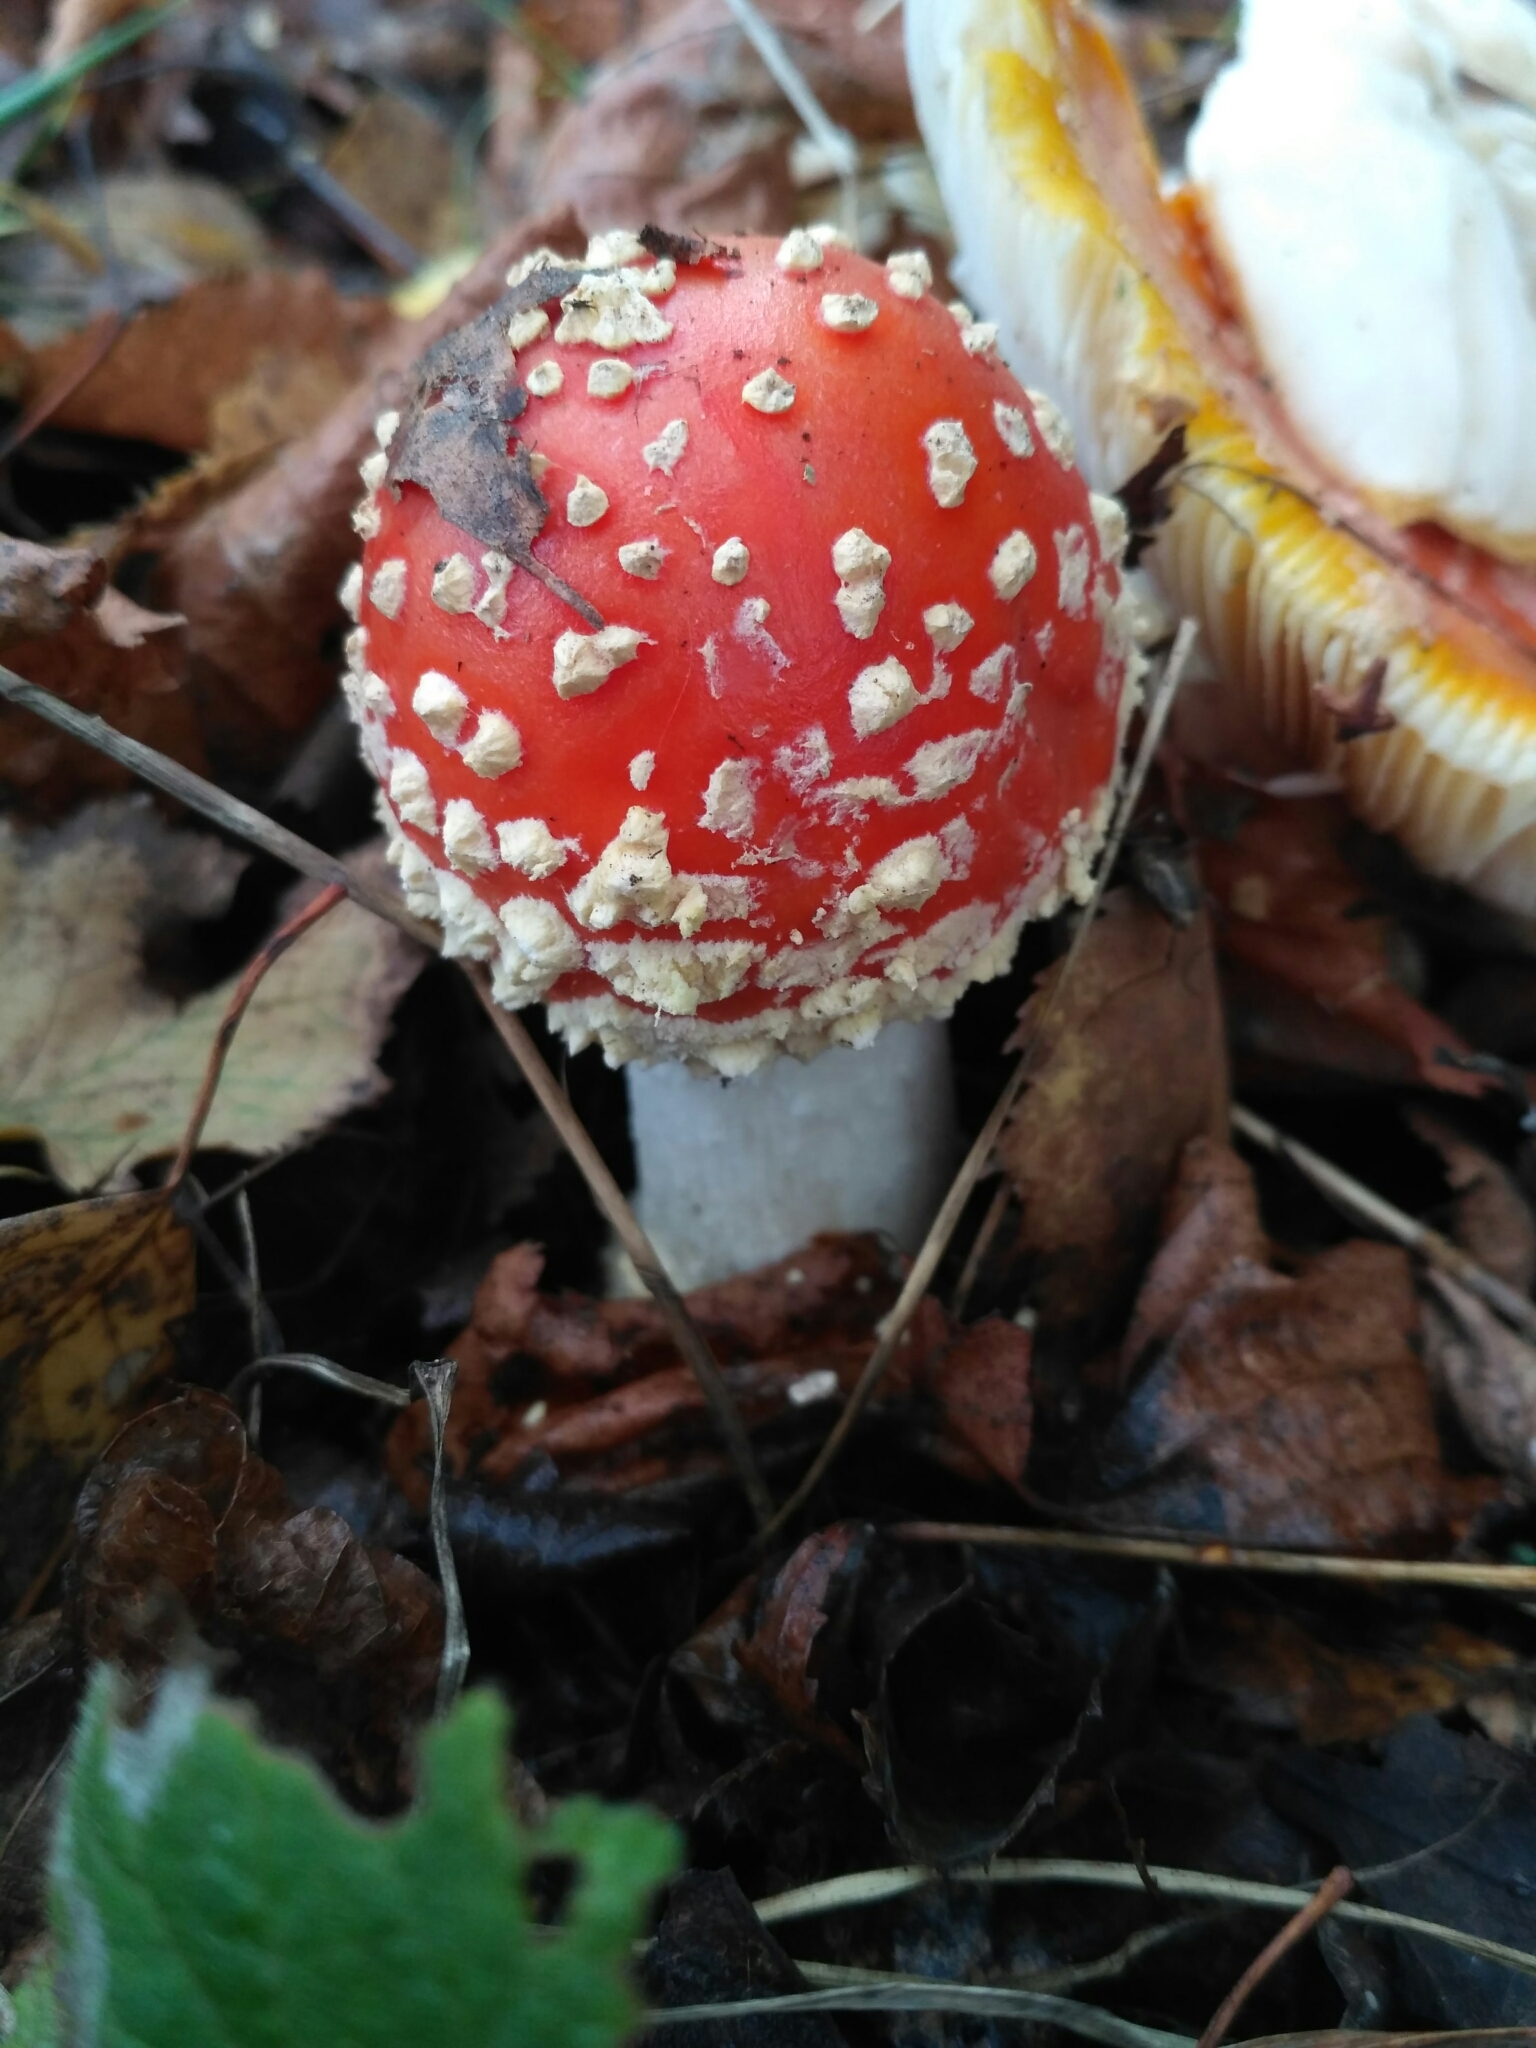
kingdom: Fungi
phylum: Basidiomycota
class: Agaricomycetes
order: Agaricales
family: Amanitaceae
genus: Amanita
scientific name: Amanita muscaria
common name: Fly agaric
